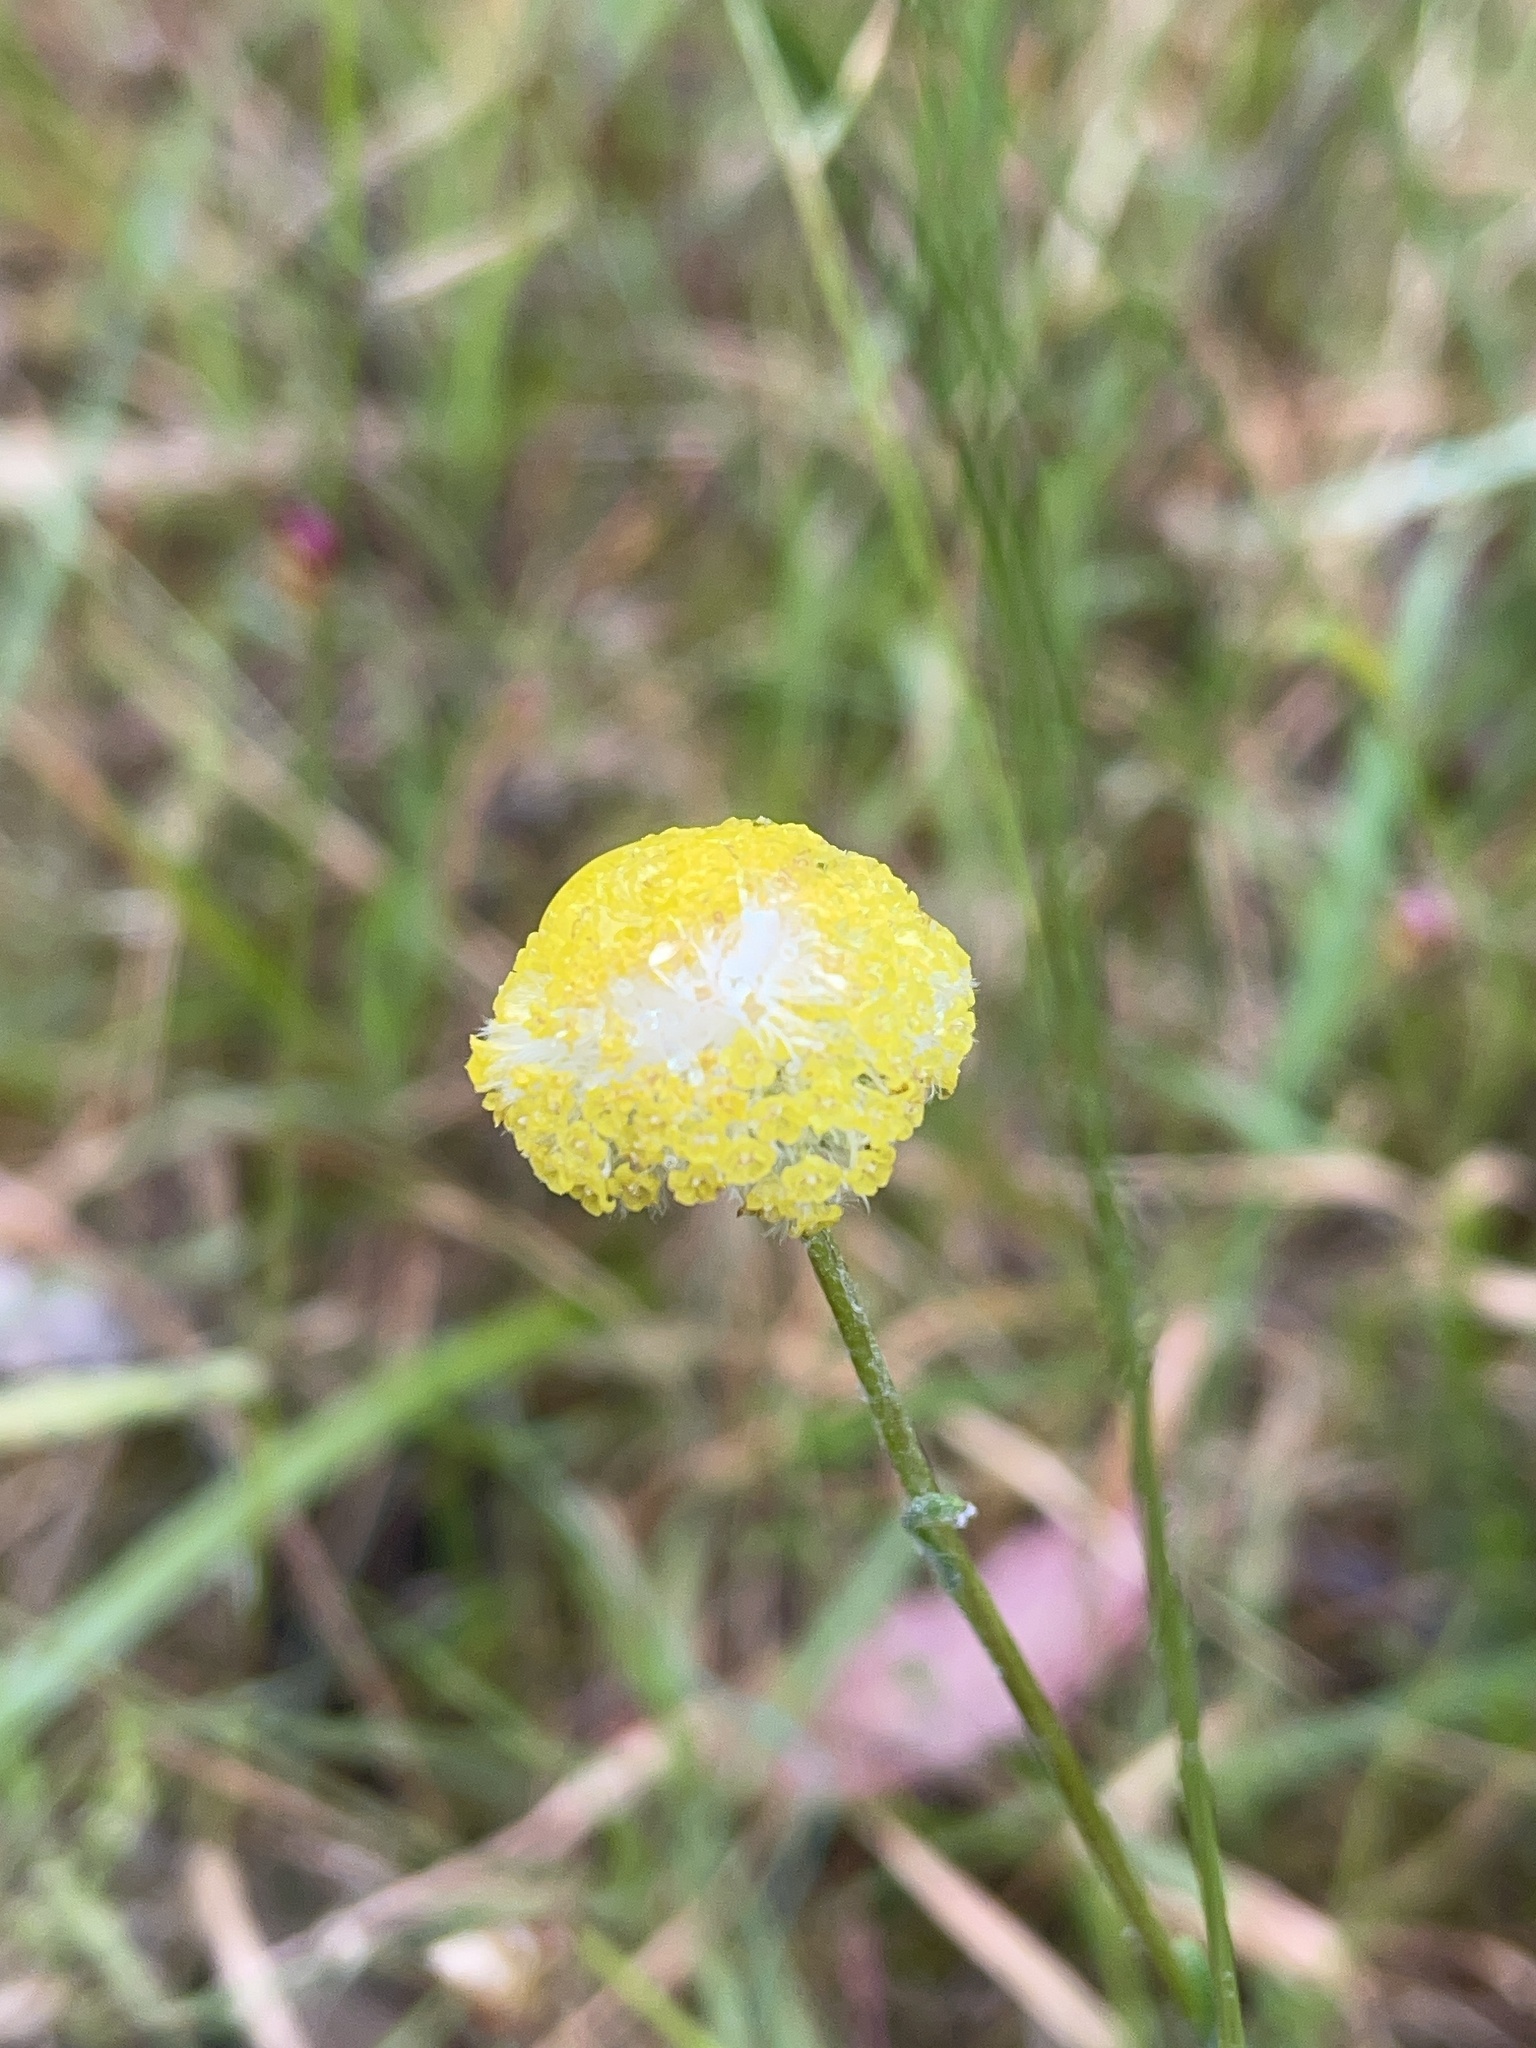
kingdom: Plantae
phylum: Tracheophyta
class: Magnoliopsida
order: Asterales
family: Asteraceae
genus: Craspedia
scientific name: Craspedia variabilis
